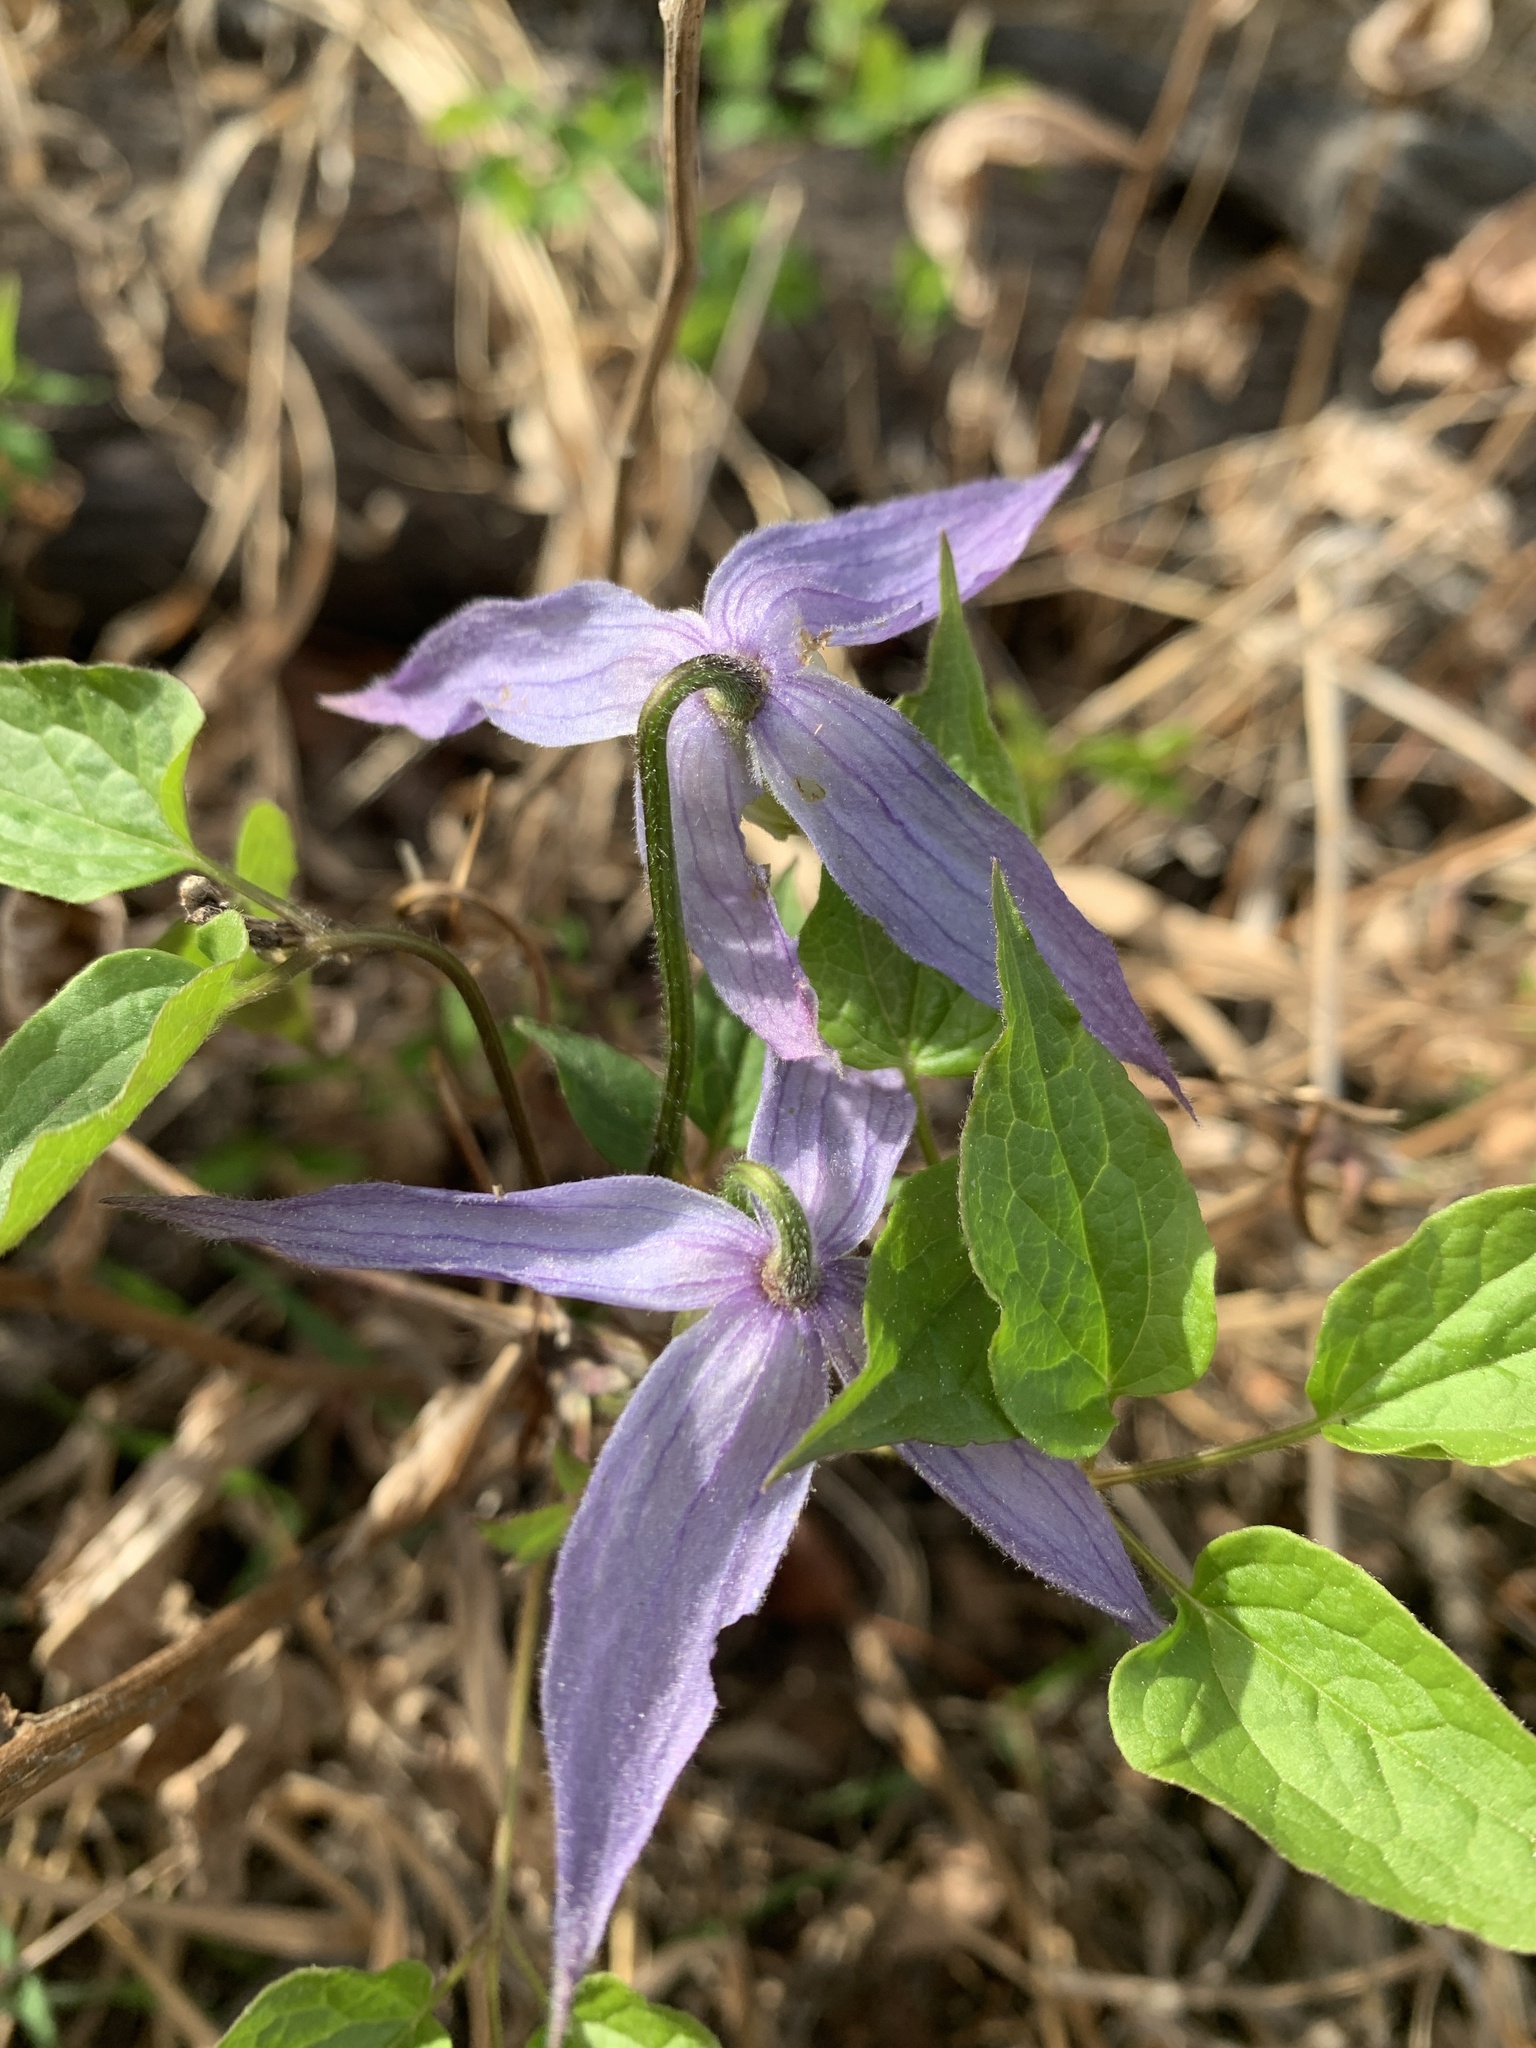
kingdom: Plantae
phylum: Tracheophyta
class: Magnoliopsida
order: Ranunculales
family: Ranunculaceae
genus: Clematis
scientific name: Clematis occidentalis
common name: Purple clematis
